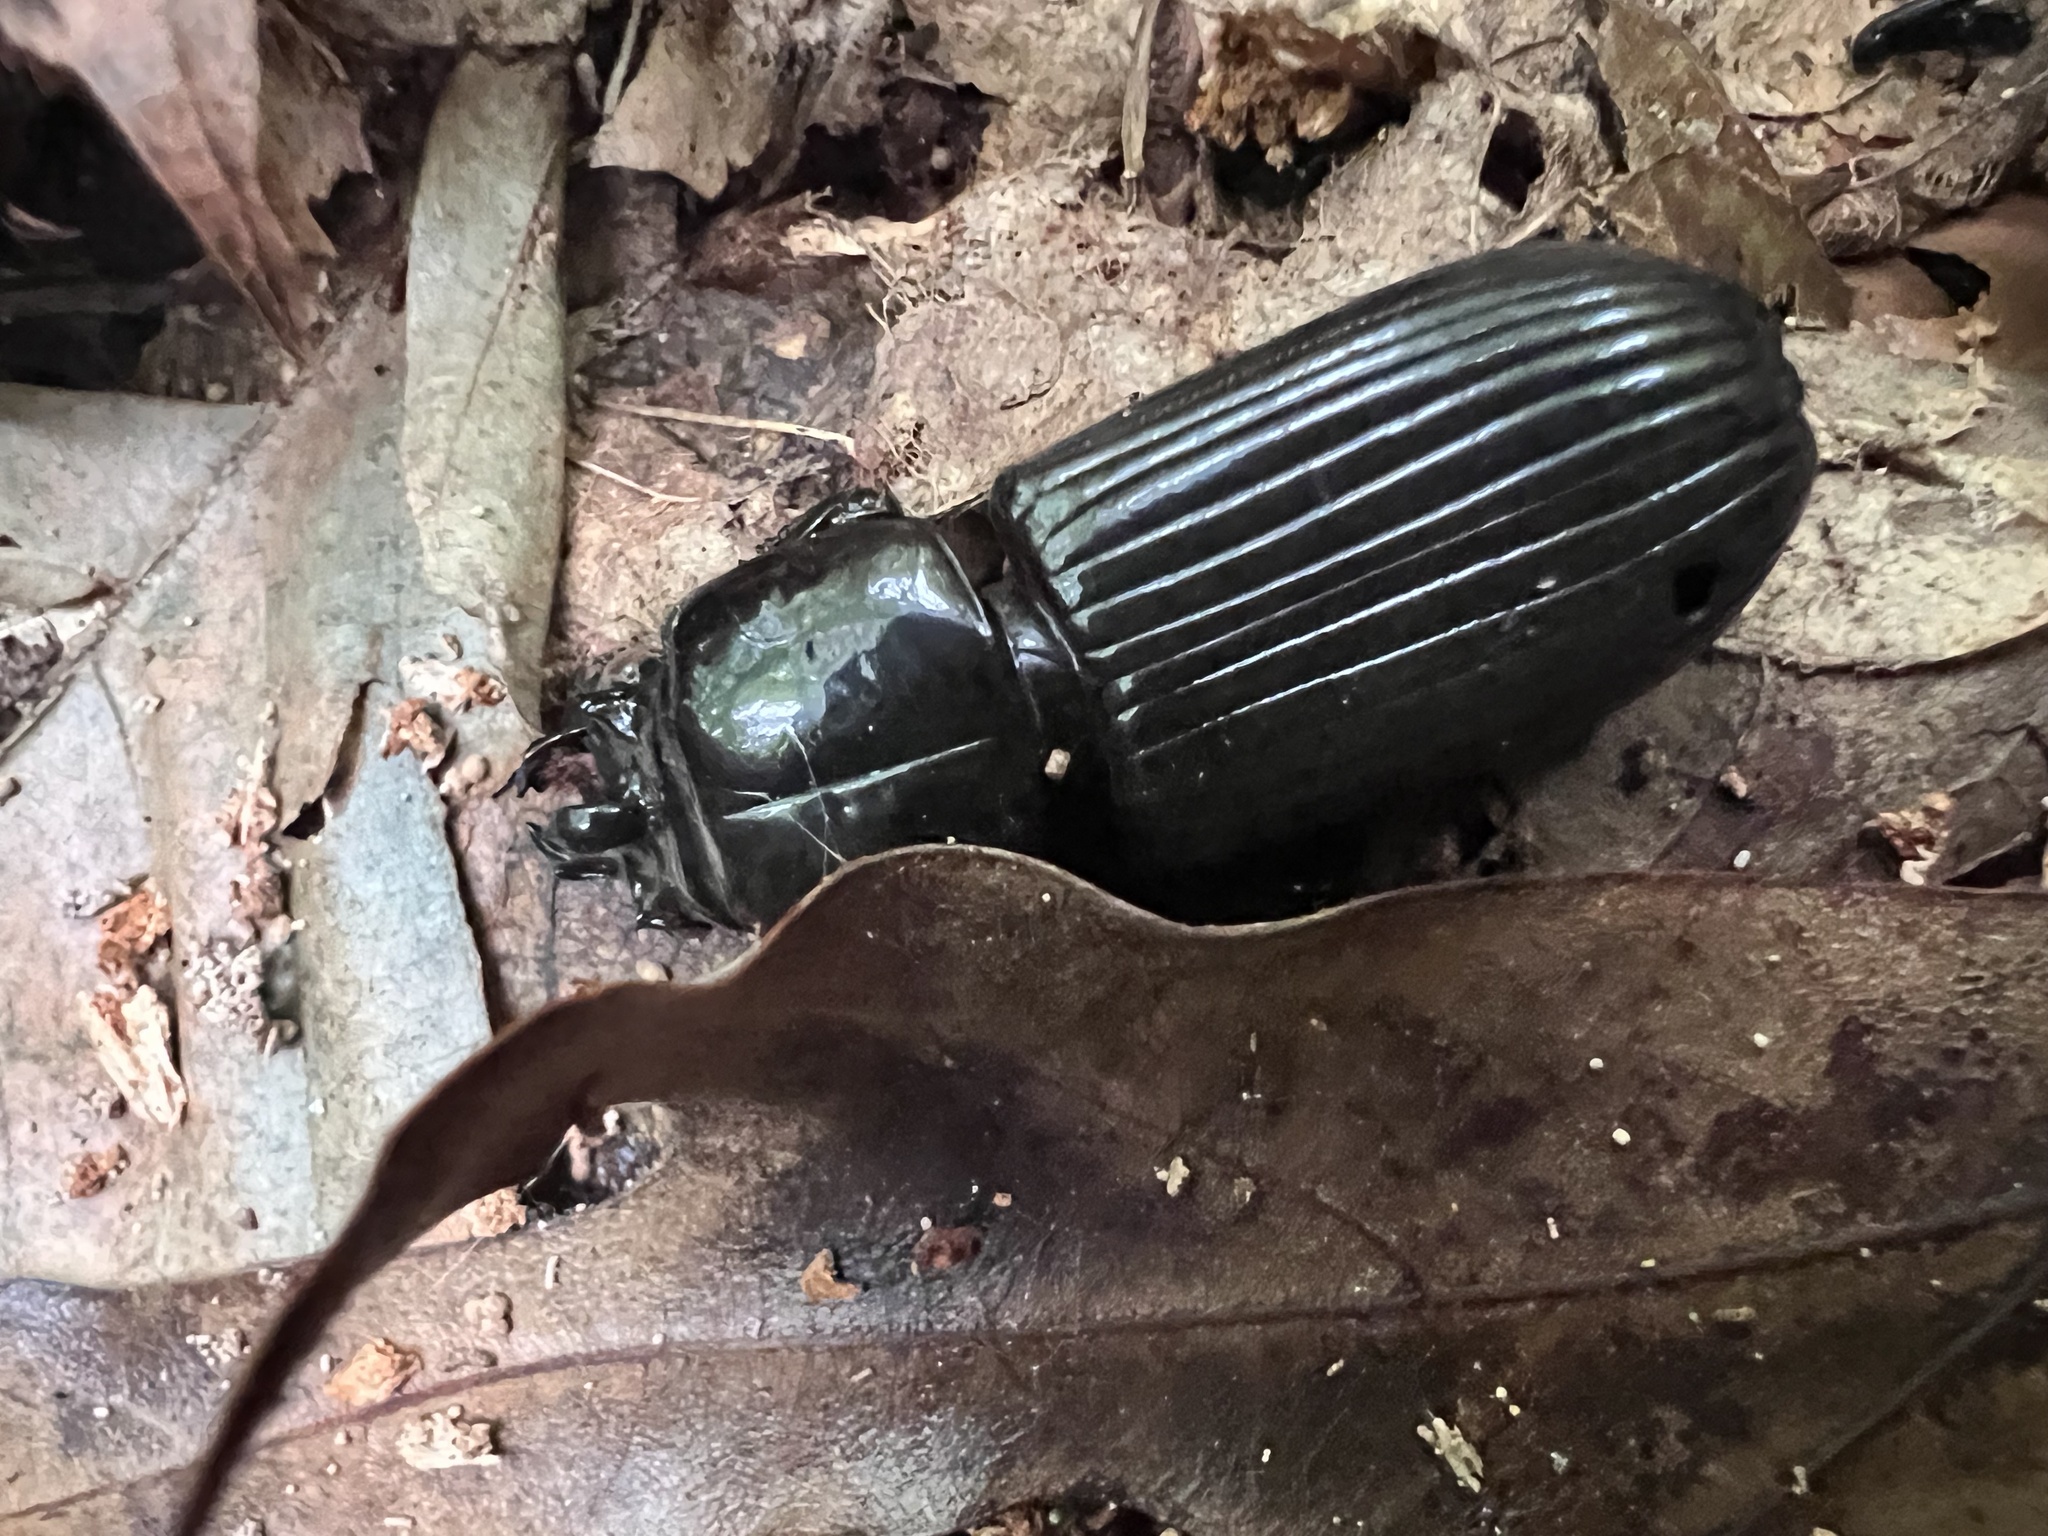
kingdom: Animalia
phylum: Arthropoda
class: Insecta
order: Coleoptera
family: Passalidae
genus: Odontotaenius
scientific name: Odontotaenius disjunctus
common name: Patent leather beetle
